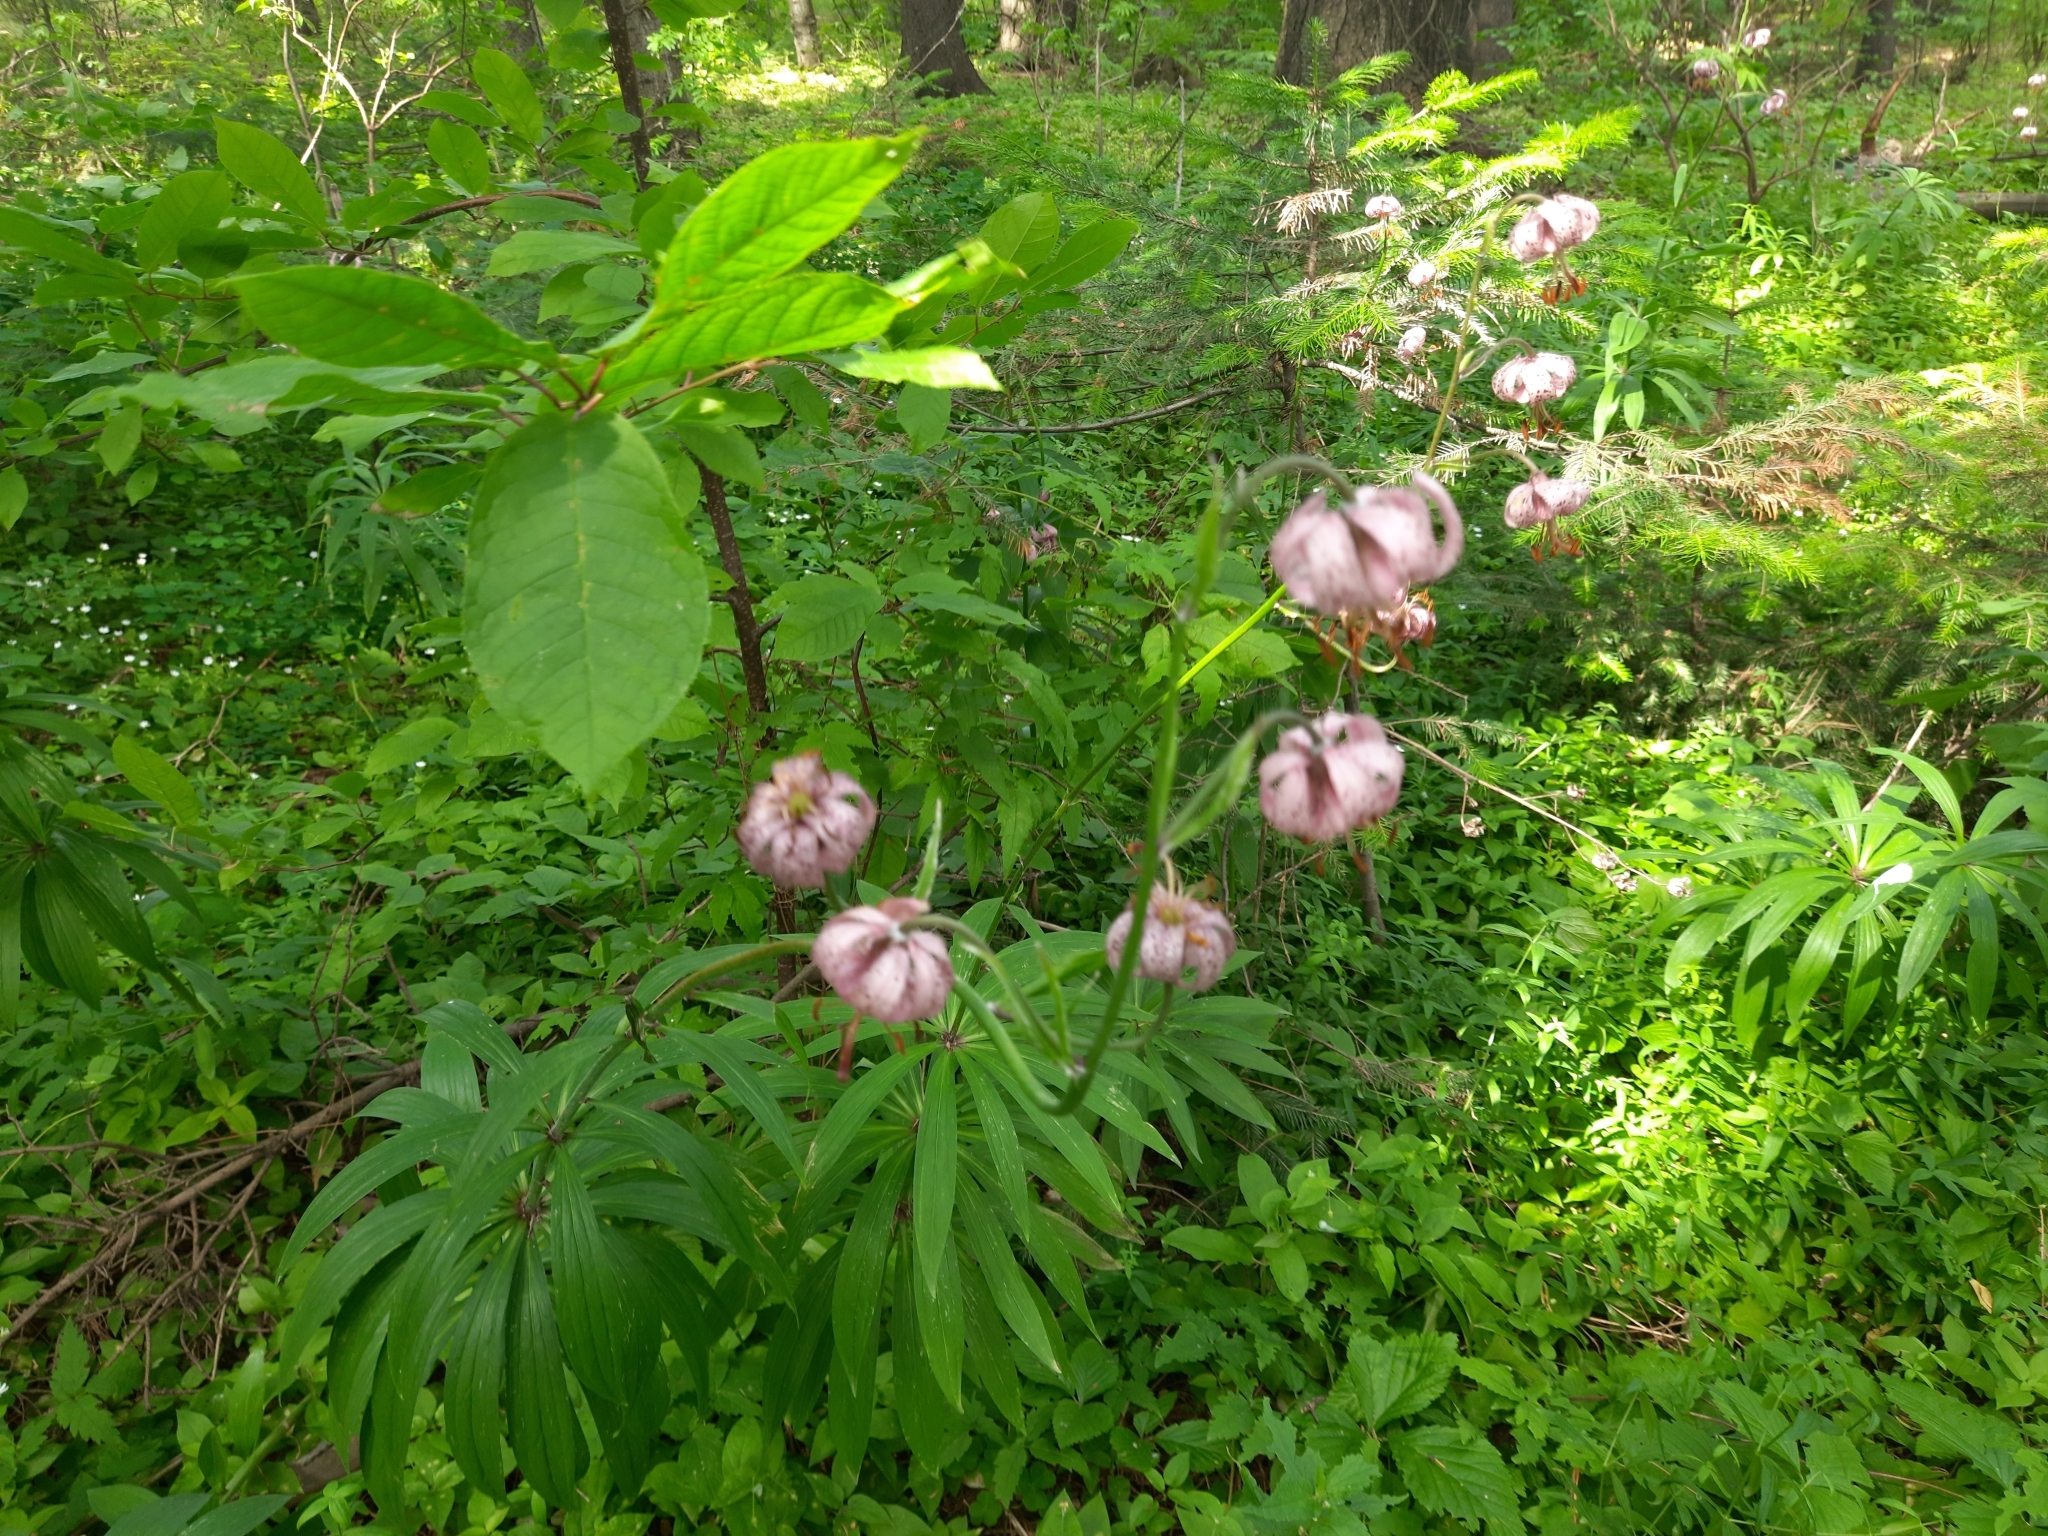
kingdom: Plantae
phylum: Tracheophyta
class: Liliopsida
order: Liliales
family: Liliaceae
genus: Lilium
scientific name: Lilium martagon
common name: Martagon lily
